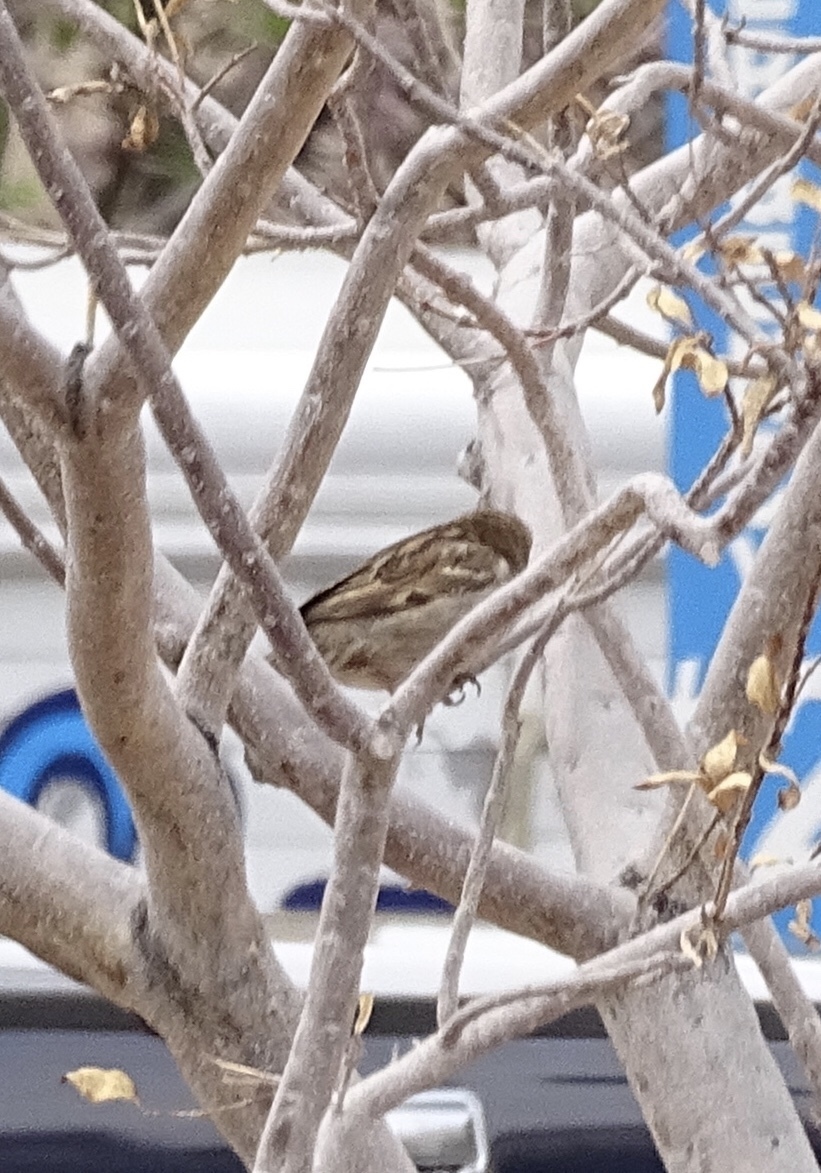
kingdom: Animalia
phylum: Chordata
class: Aves
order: Passeriformes
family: Passeridae
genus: Passer
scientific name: Passer domesticus
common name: House sparrow
